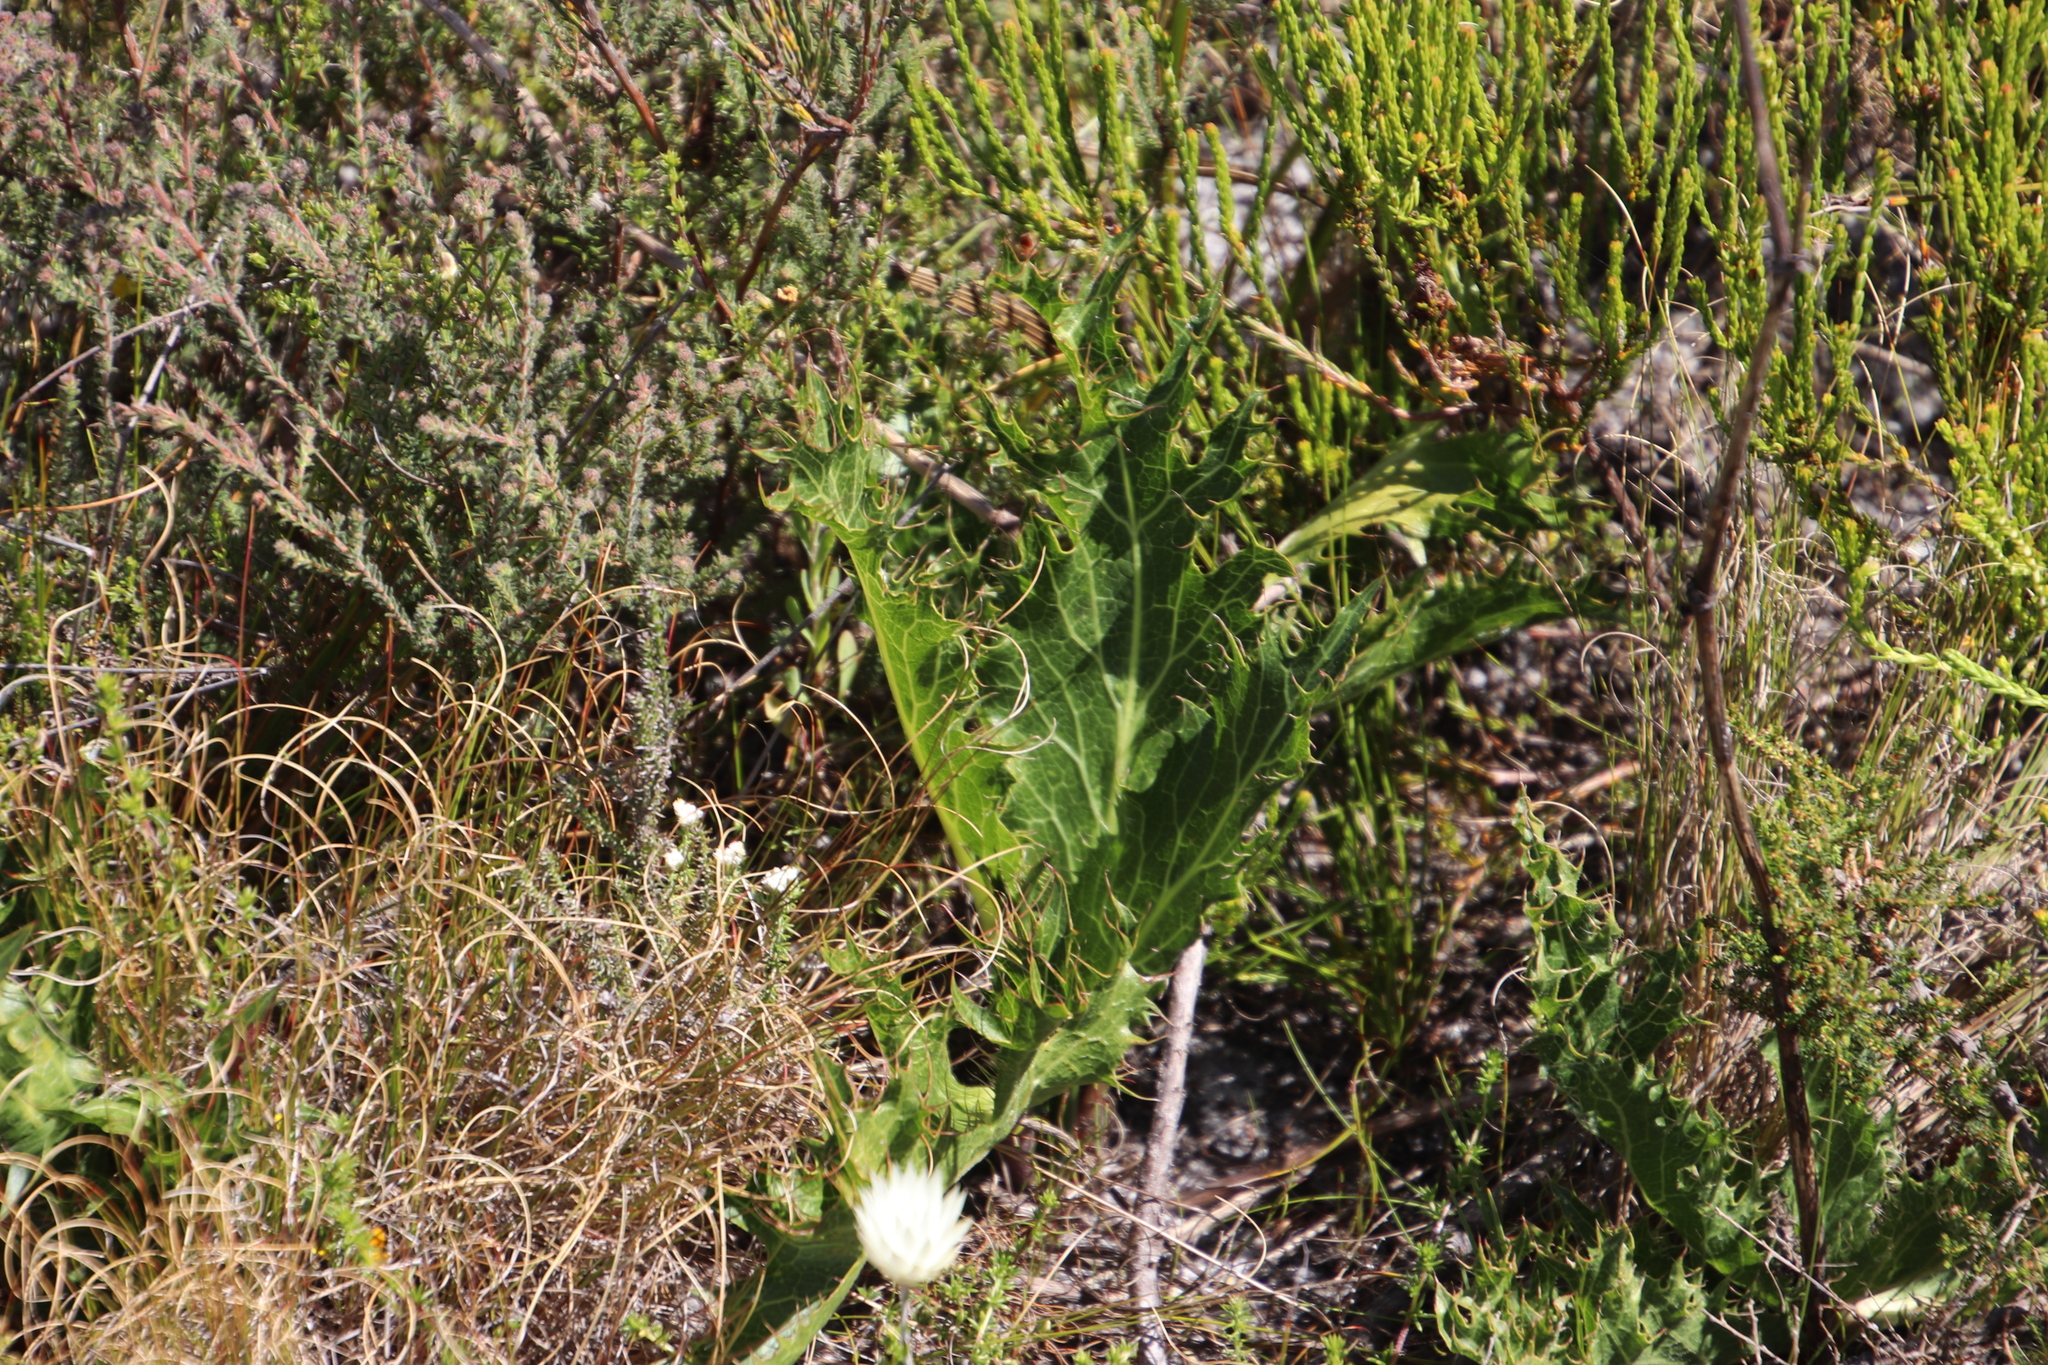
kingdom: Plantae
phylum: Tracheophyta
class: Magnoliopsida
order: Apiales
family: Apiaceae
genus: Lichtensteinia
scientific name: Lichtensteinia lacera
